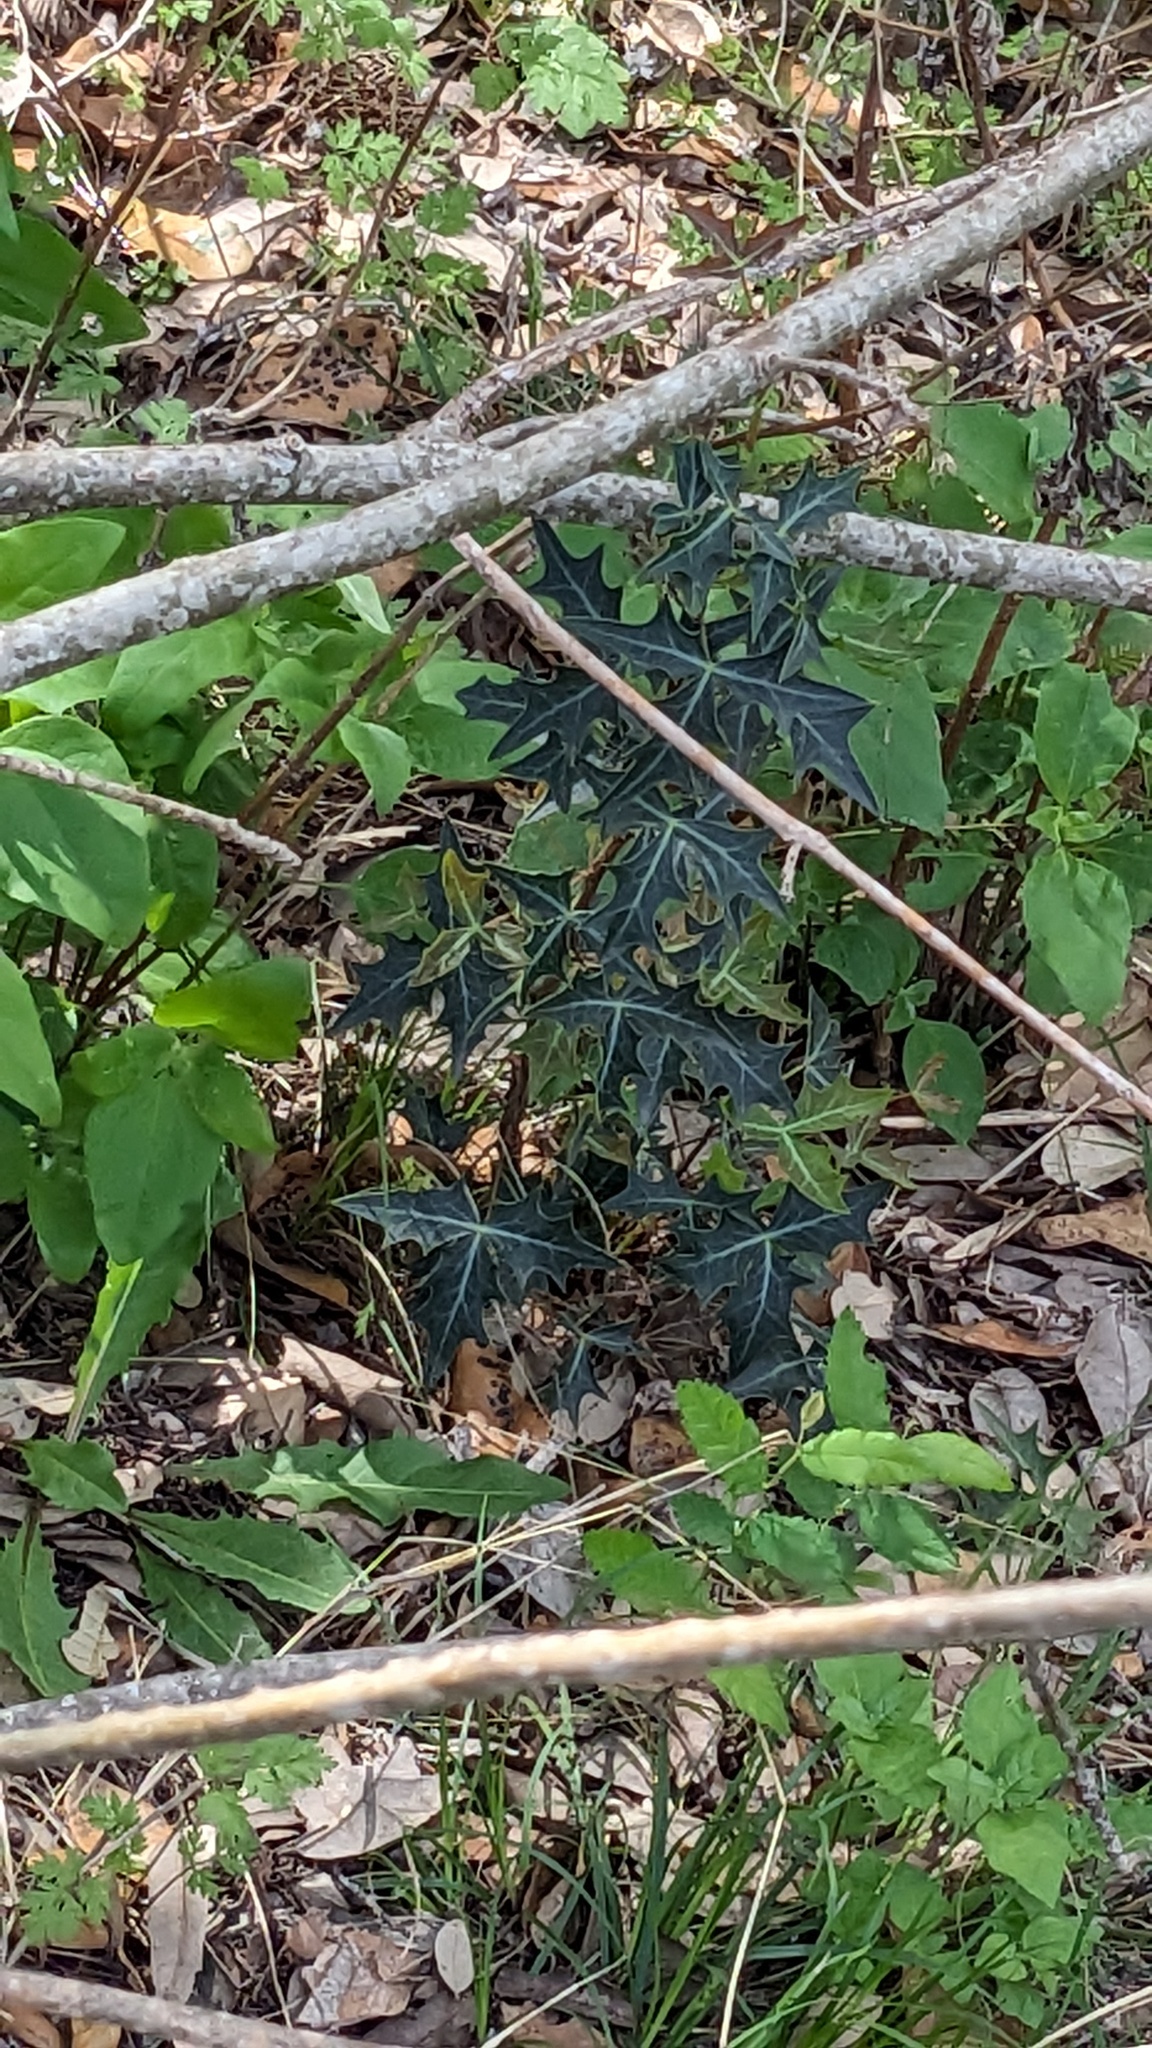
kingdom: Plantae
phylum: Tracheophyta
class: Magnoliopsida
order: Ranunculales
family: Berberidaceae
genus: Alloberberis
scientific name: Alloberberis trifoliolata
